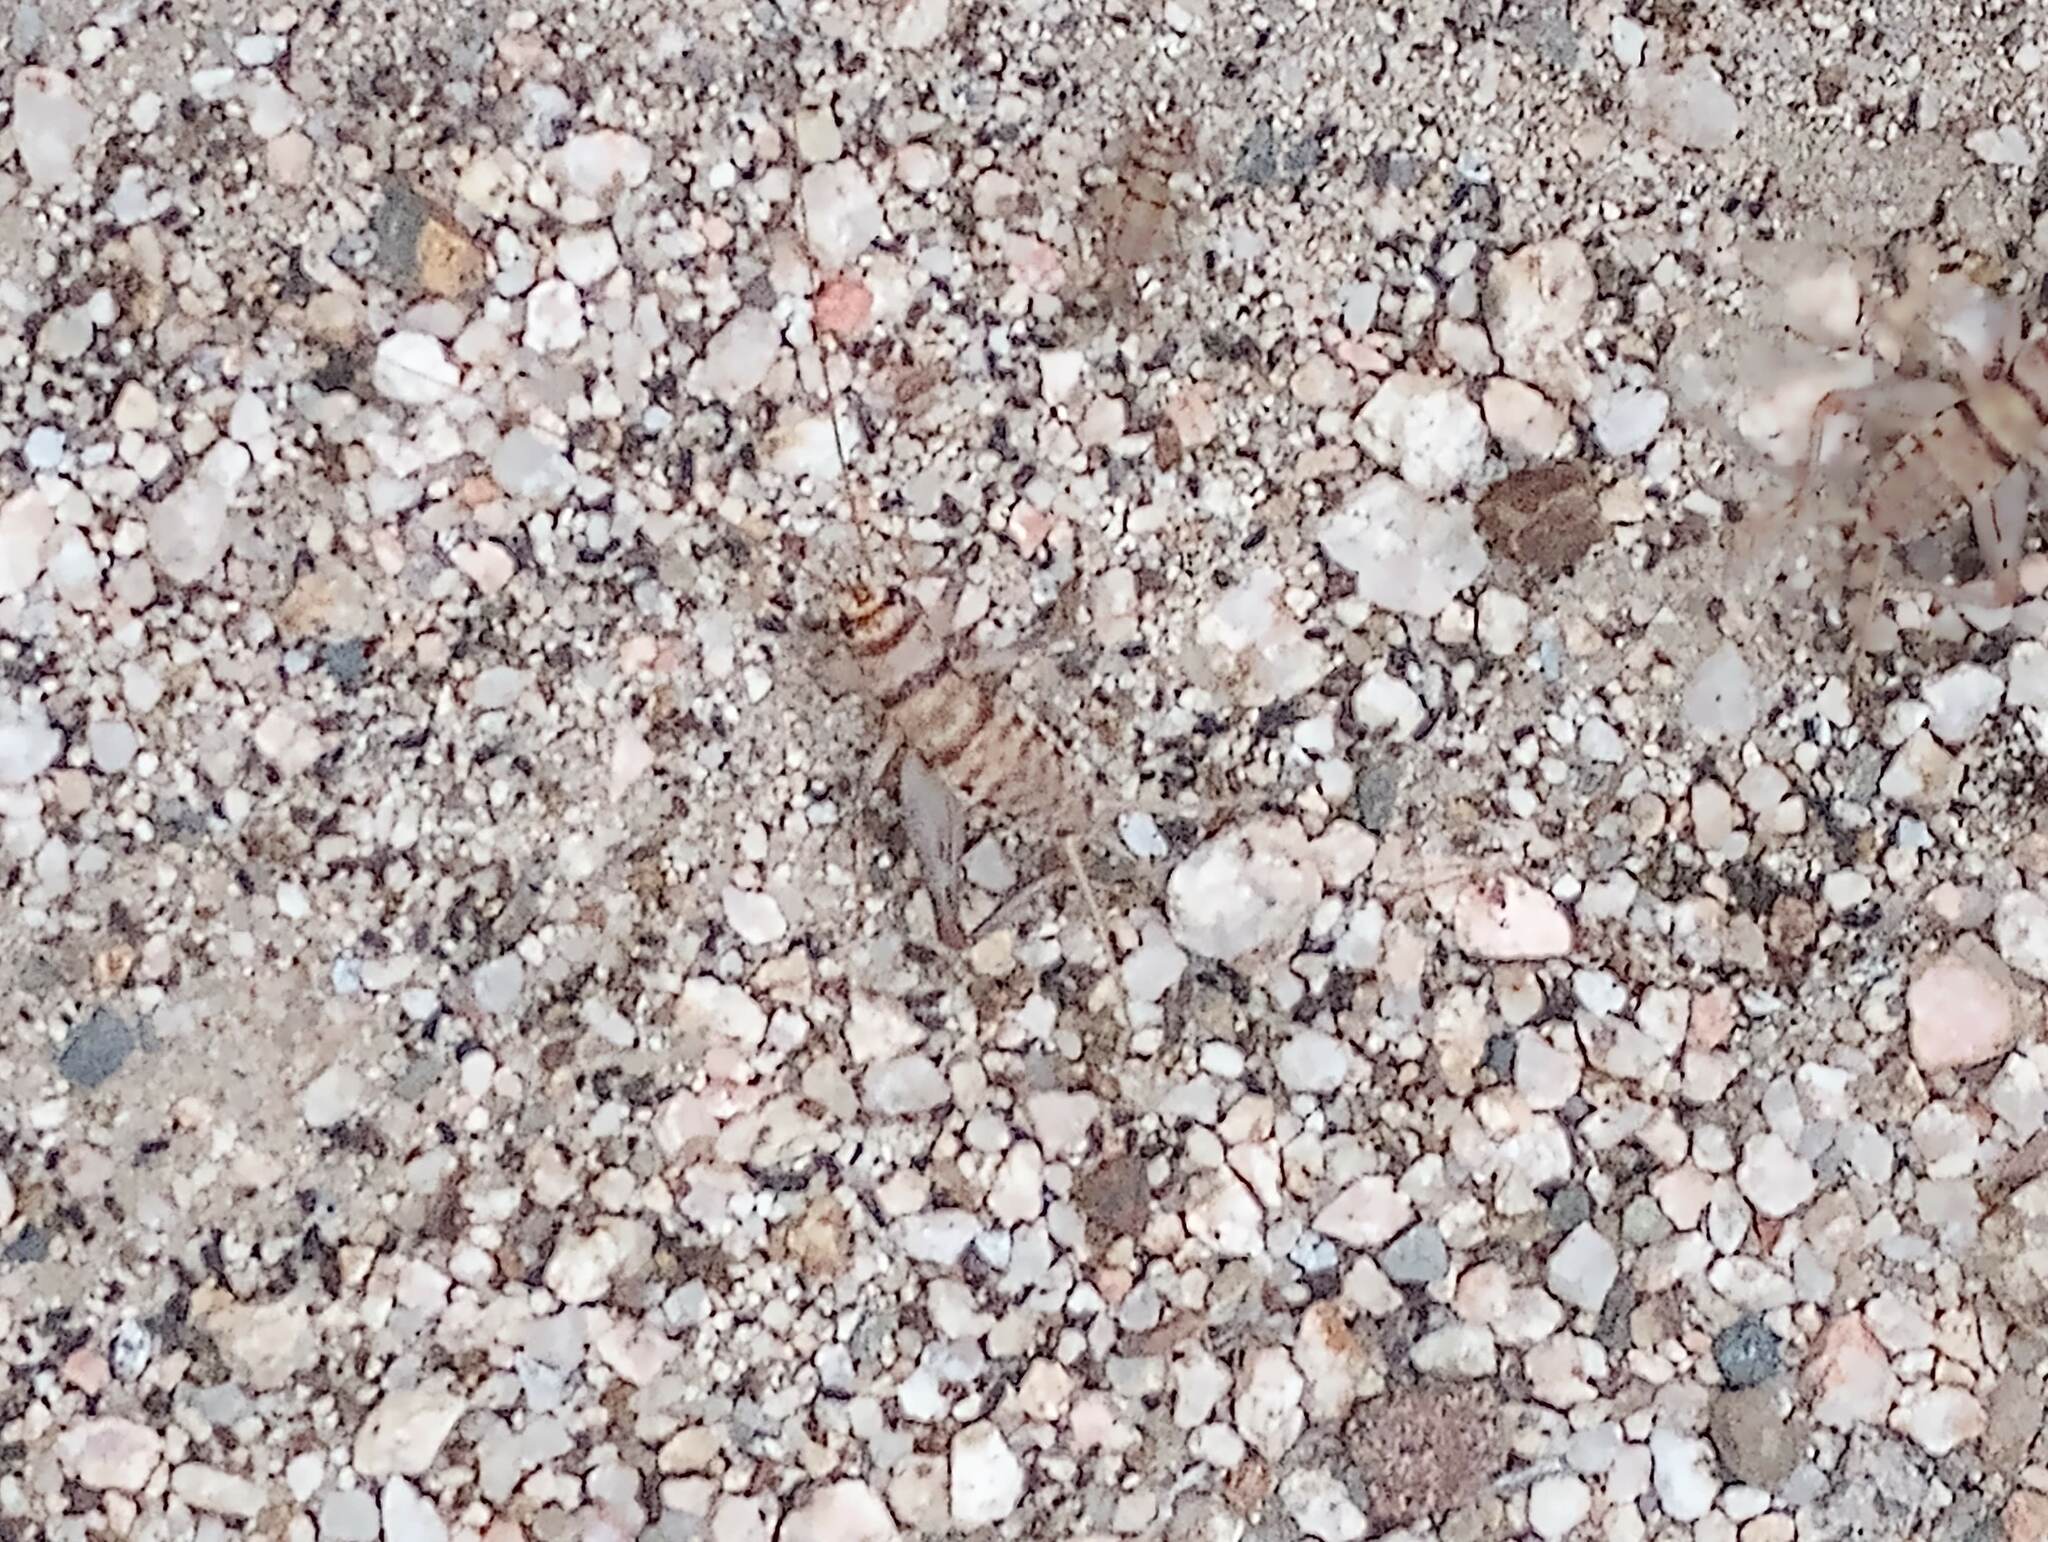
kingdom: Animalia
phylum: Arthropoda
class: Insecta
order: Orthoptera
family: Gryllidae
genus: Gryllodes
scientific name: Gryllodes sigillatus
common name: Tropical house cricket
